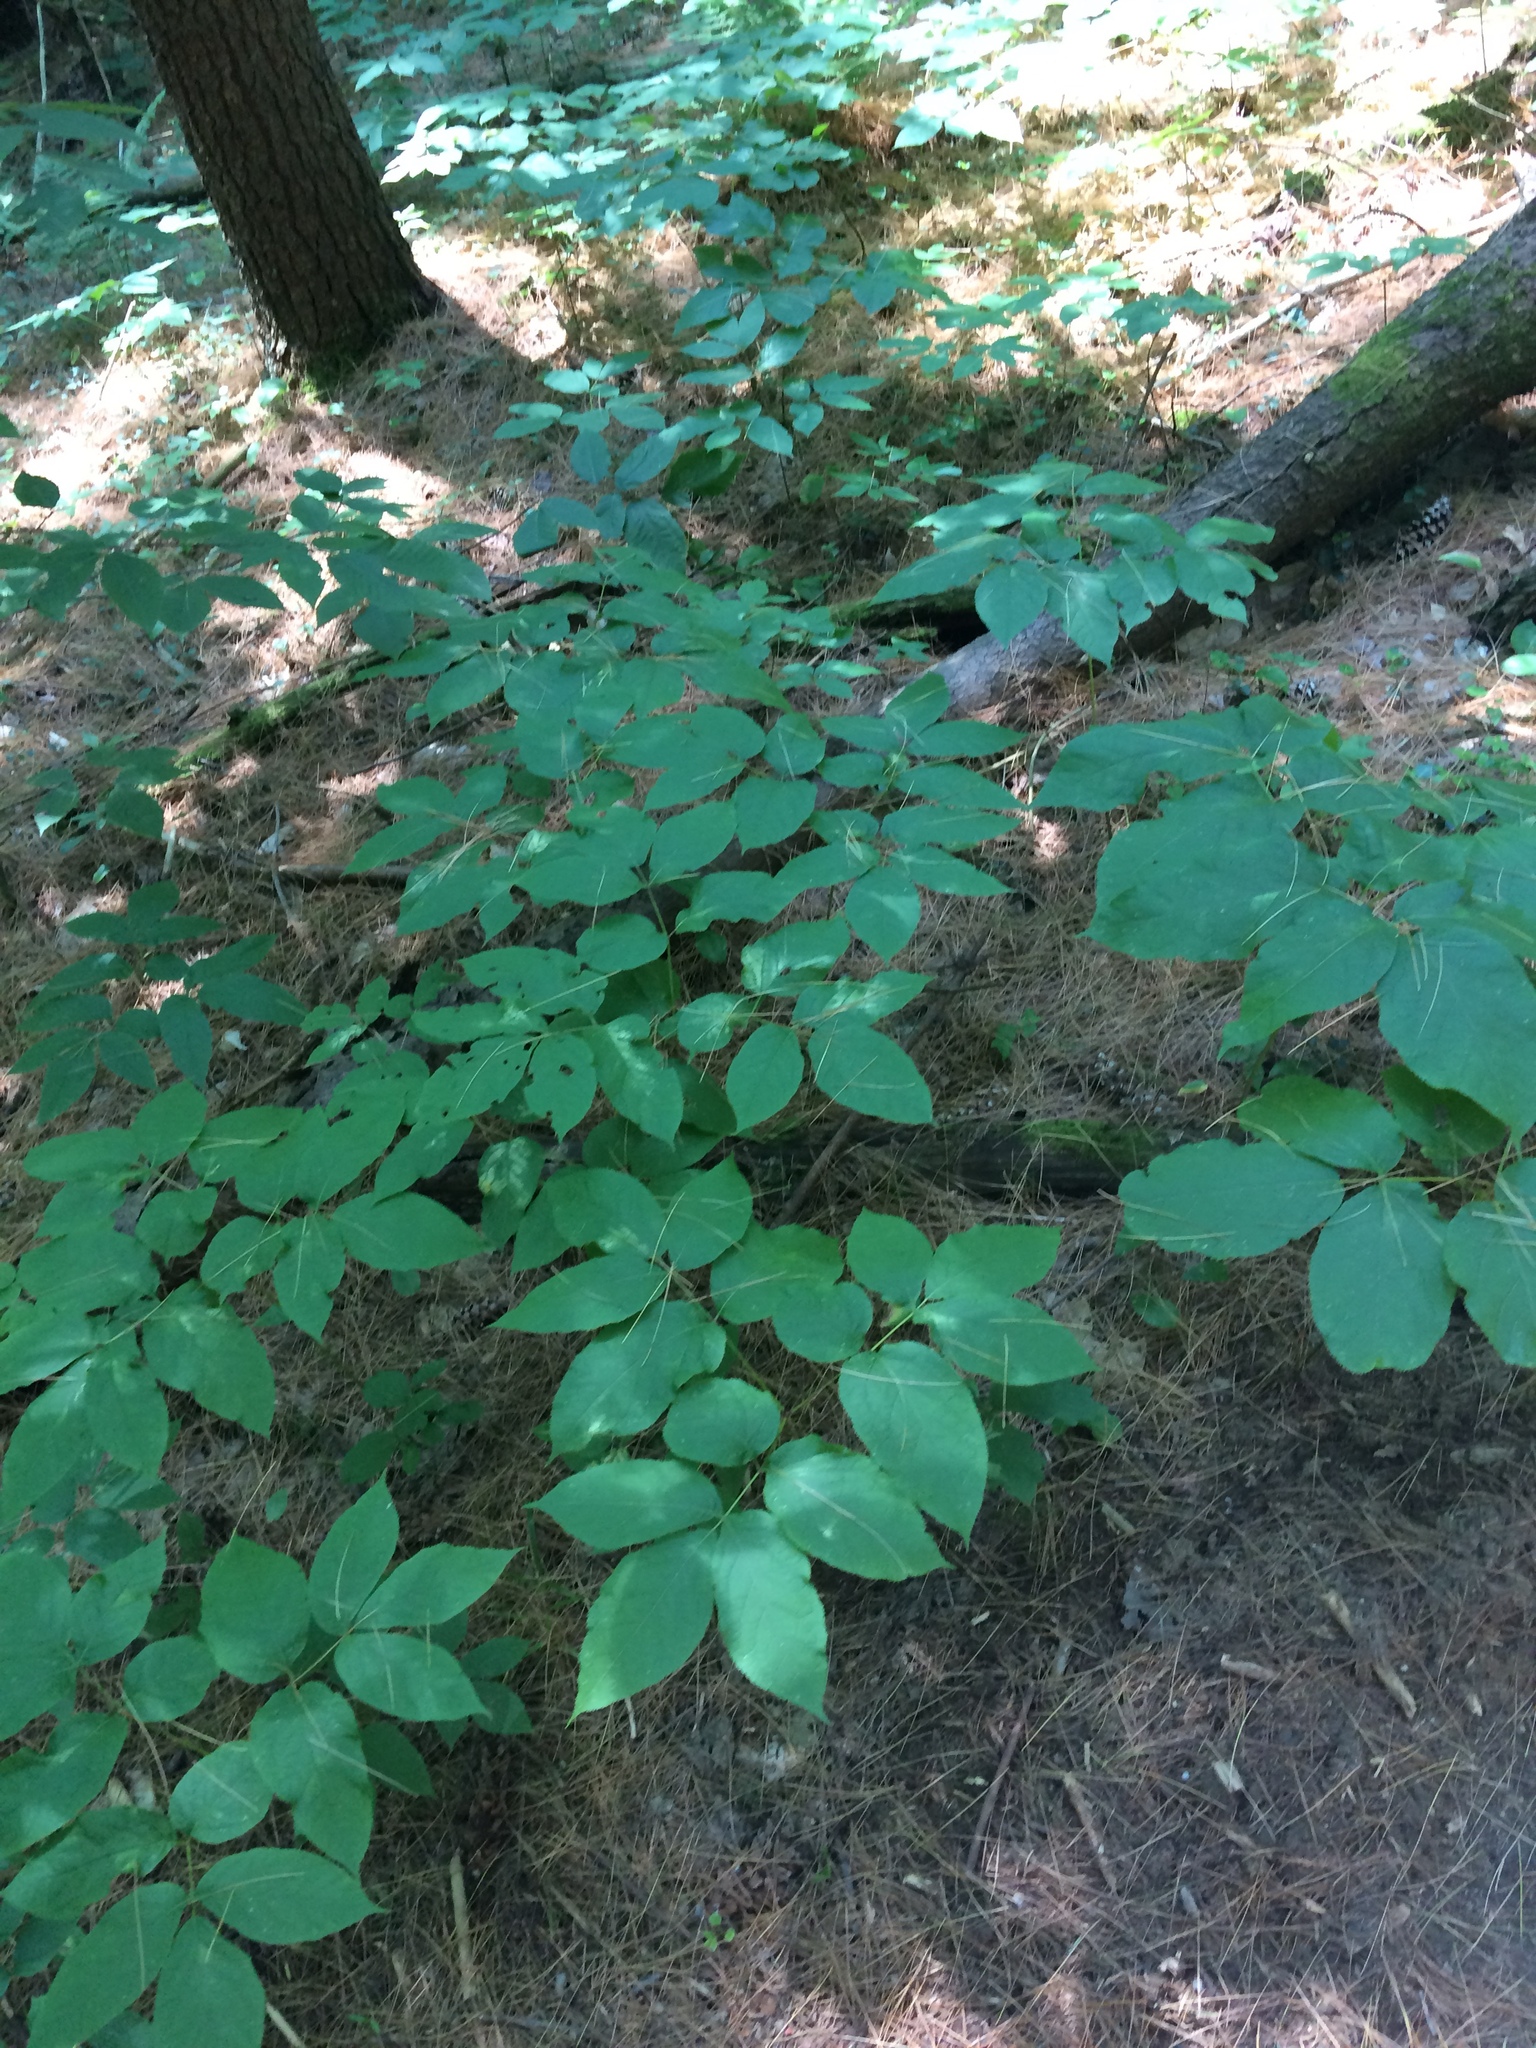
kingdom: Plantae
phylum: Tracheophyta
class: Magnoliopsida
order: Apiales
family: Araliaceae
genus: Aralia
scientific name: Aralia nudicaulis
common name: Wild sarsaparilla
